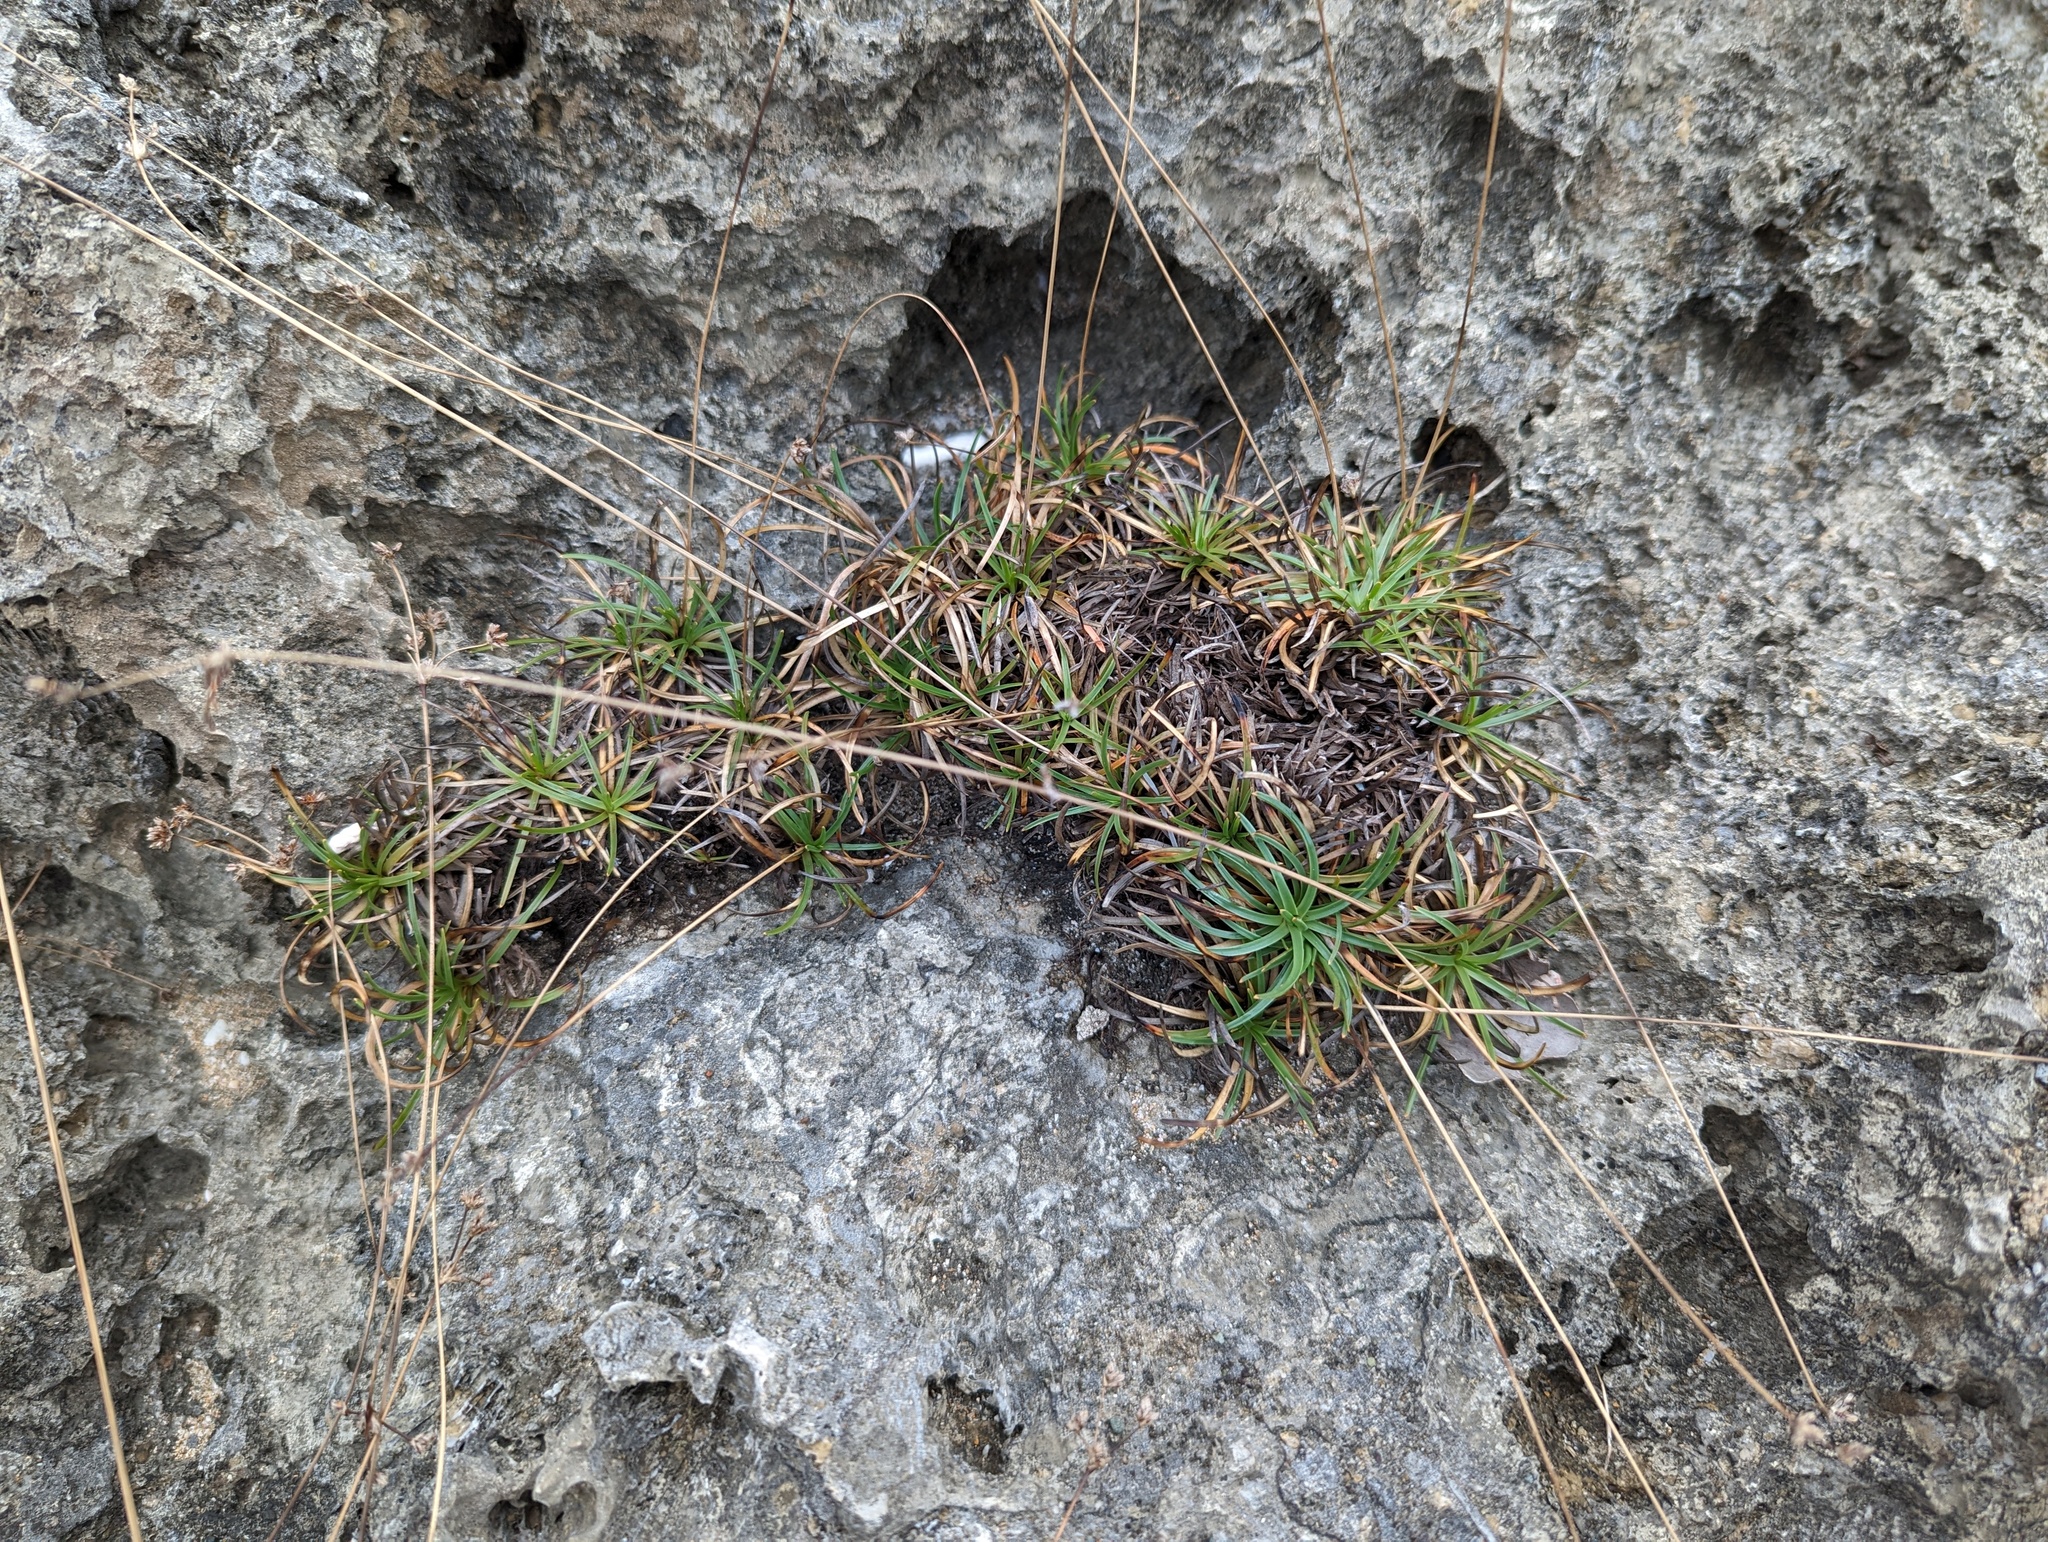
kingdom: Plantae
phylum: Tracheophyta
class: Liliopsida
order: Poales
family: Cyperaceae
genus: Fimbristylis
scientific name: Fimbristylis cymosa
